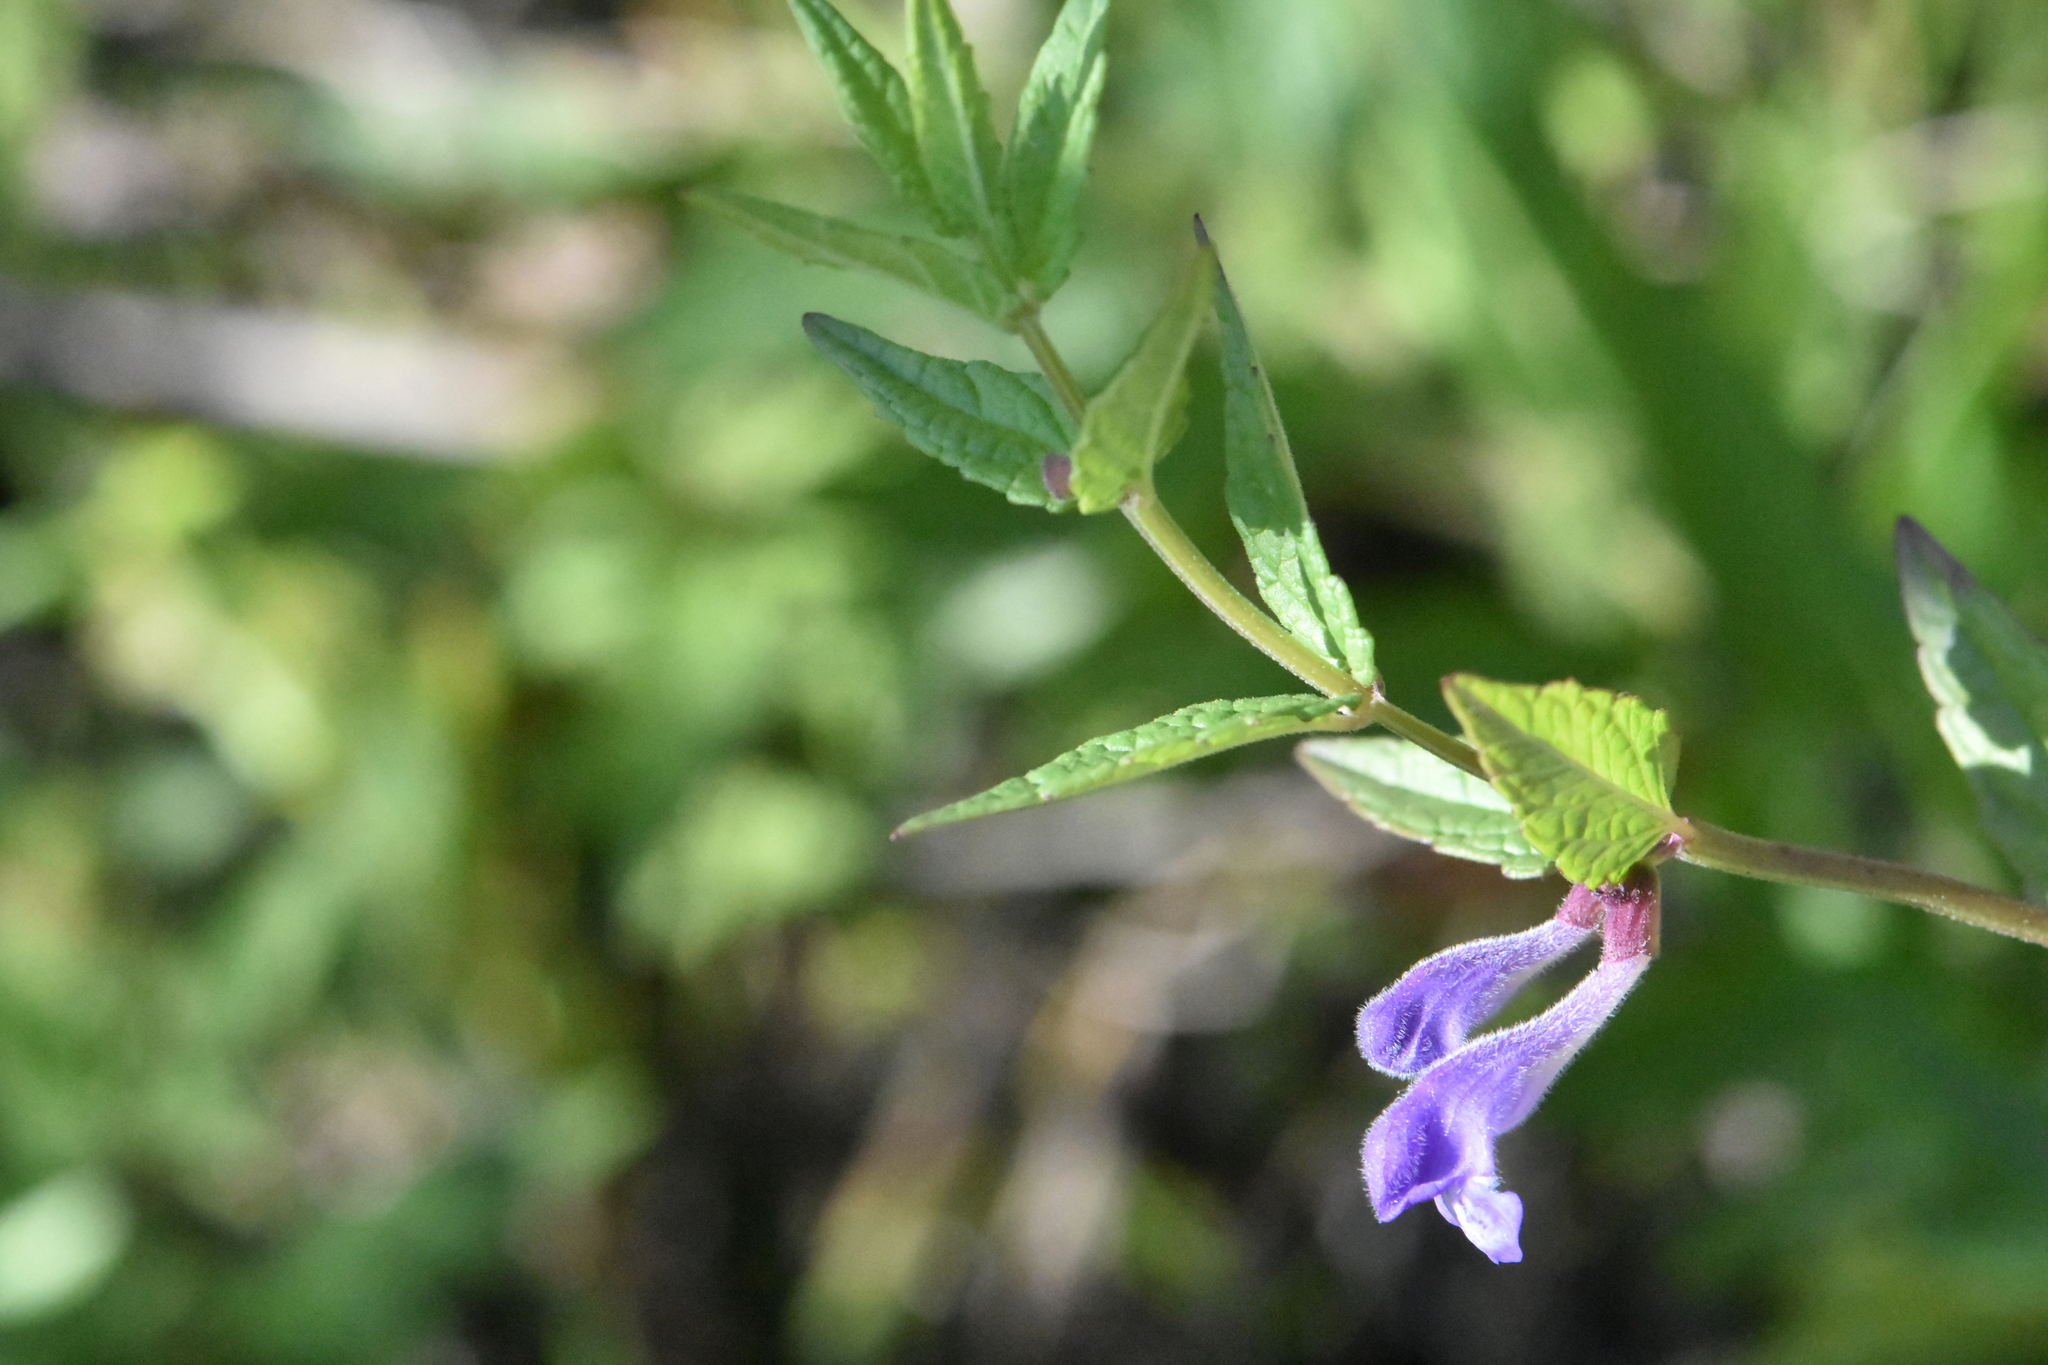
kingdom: Plantae
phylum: Tracheophyta
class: Magnoliopsida
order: Lamiales
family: Lamiaceae
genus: Scutellaria
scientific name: Scutellaria galericulata
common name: Skullcap
